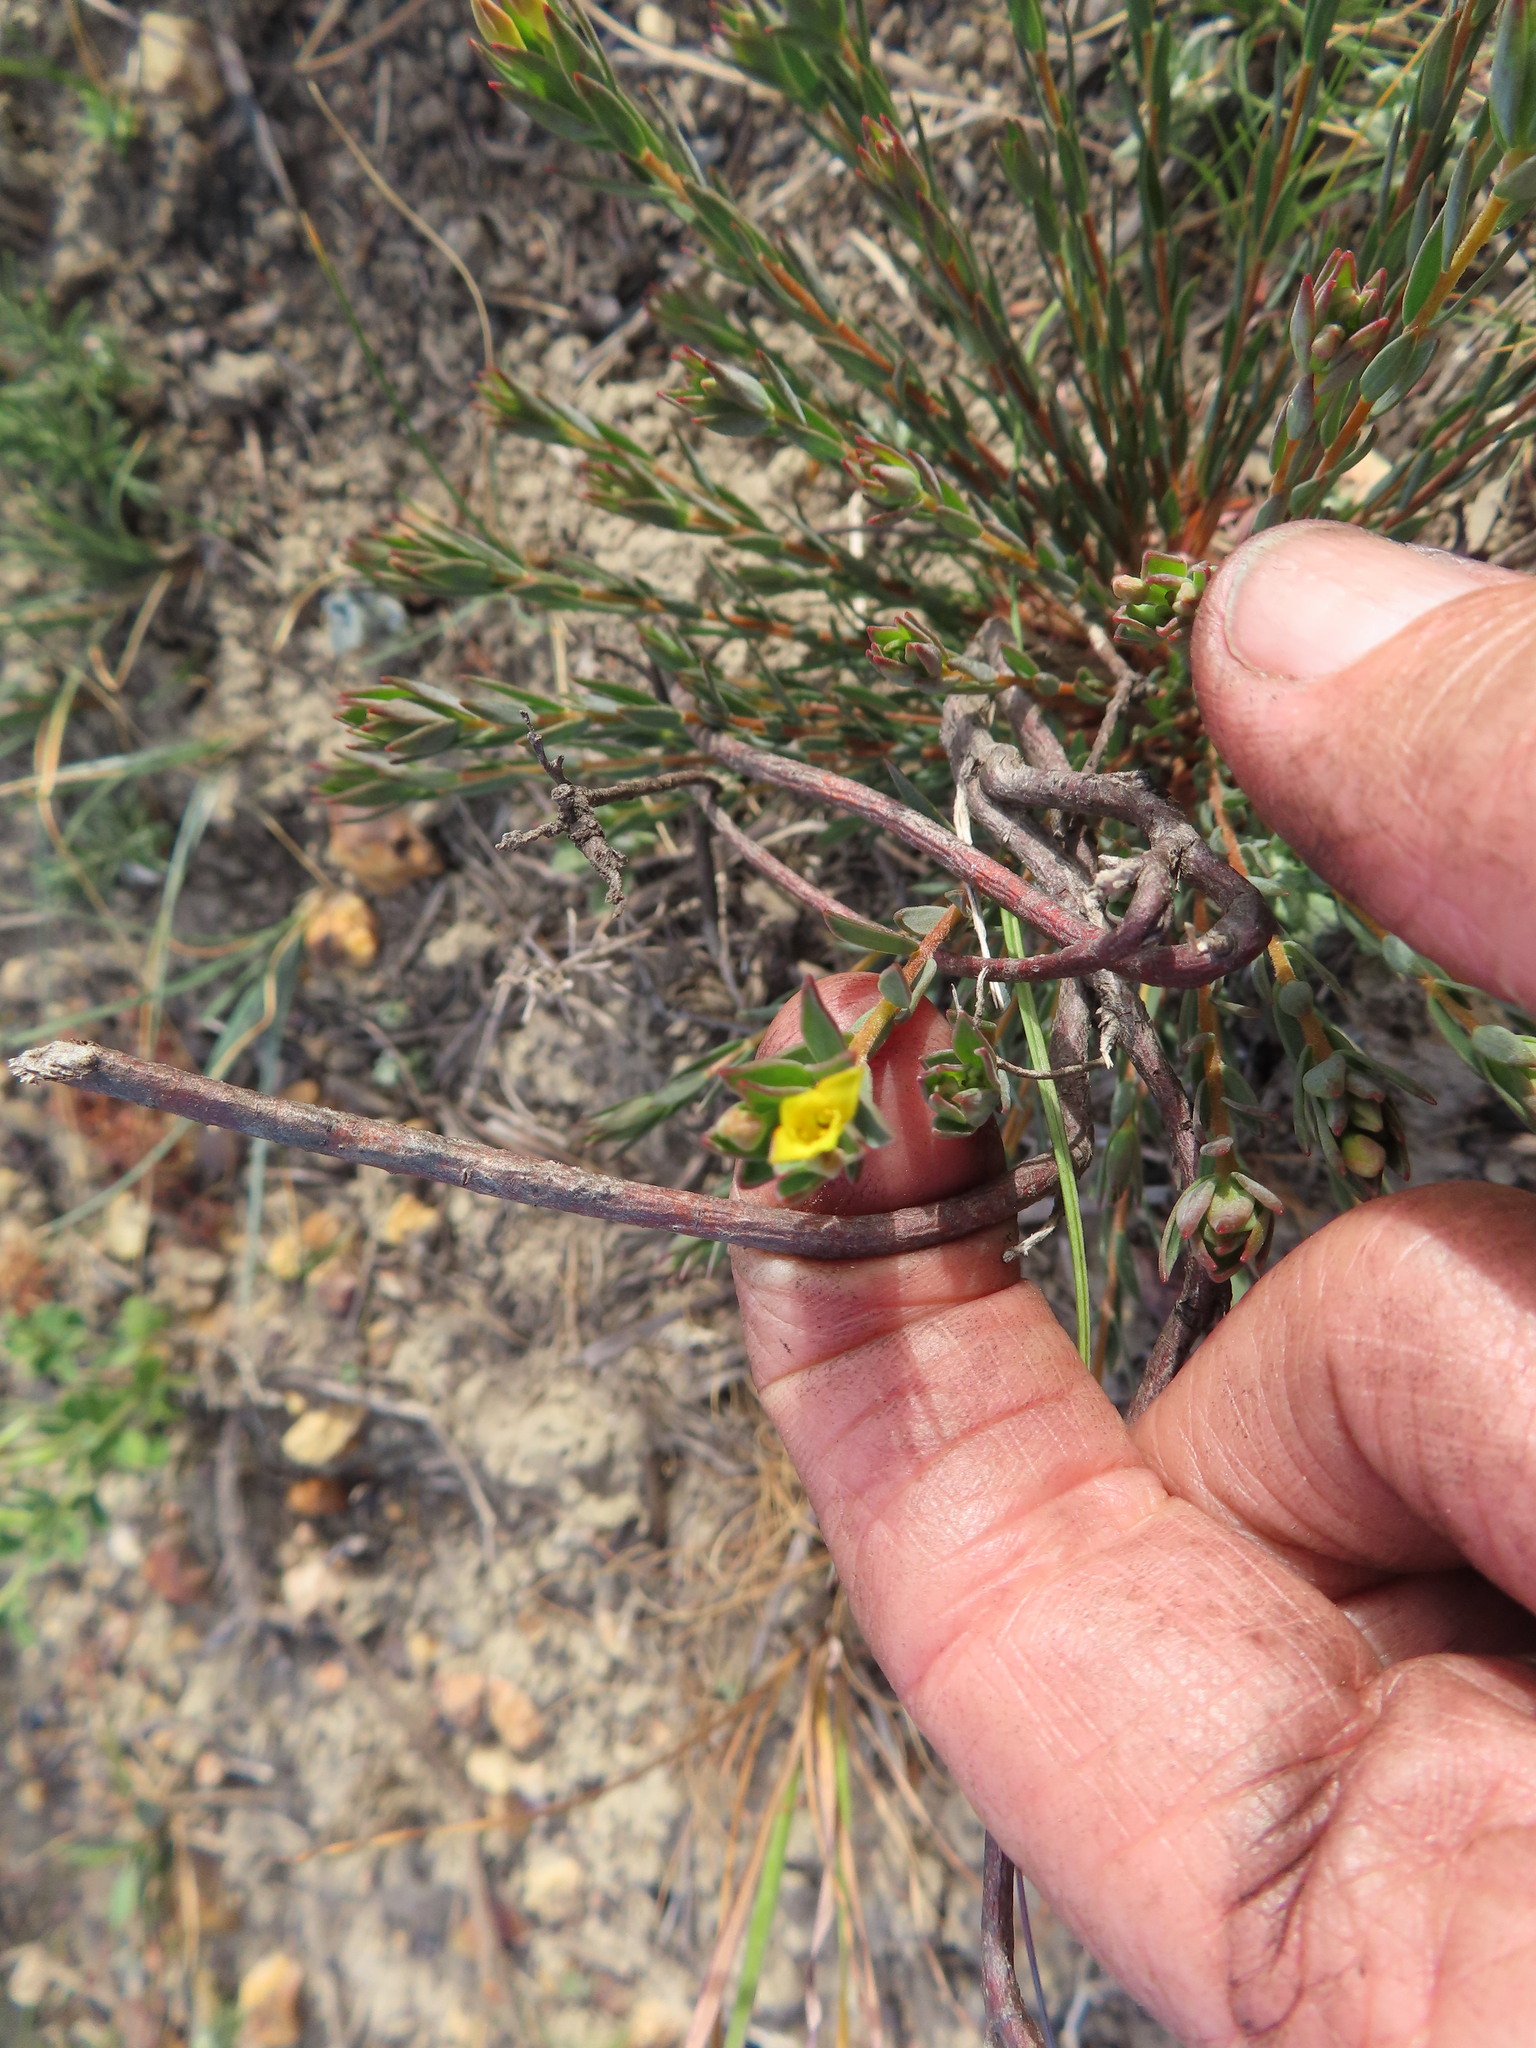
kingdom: Plantae
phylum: Tracheophyta
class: Magnoliopsida
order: Malvales
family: Thymelaeaceae
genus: Gnidia
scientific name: Gnidia juniperifolia
